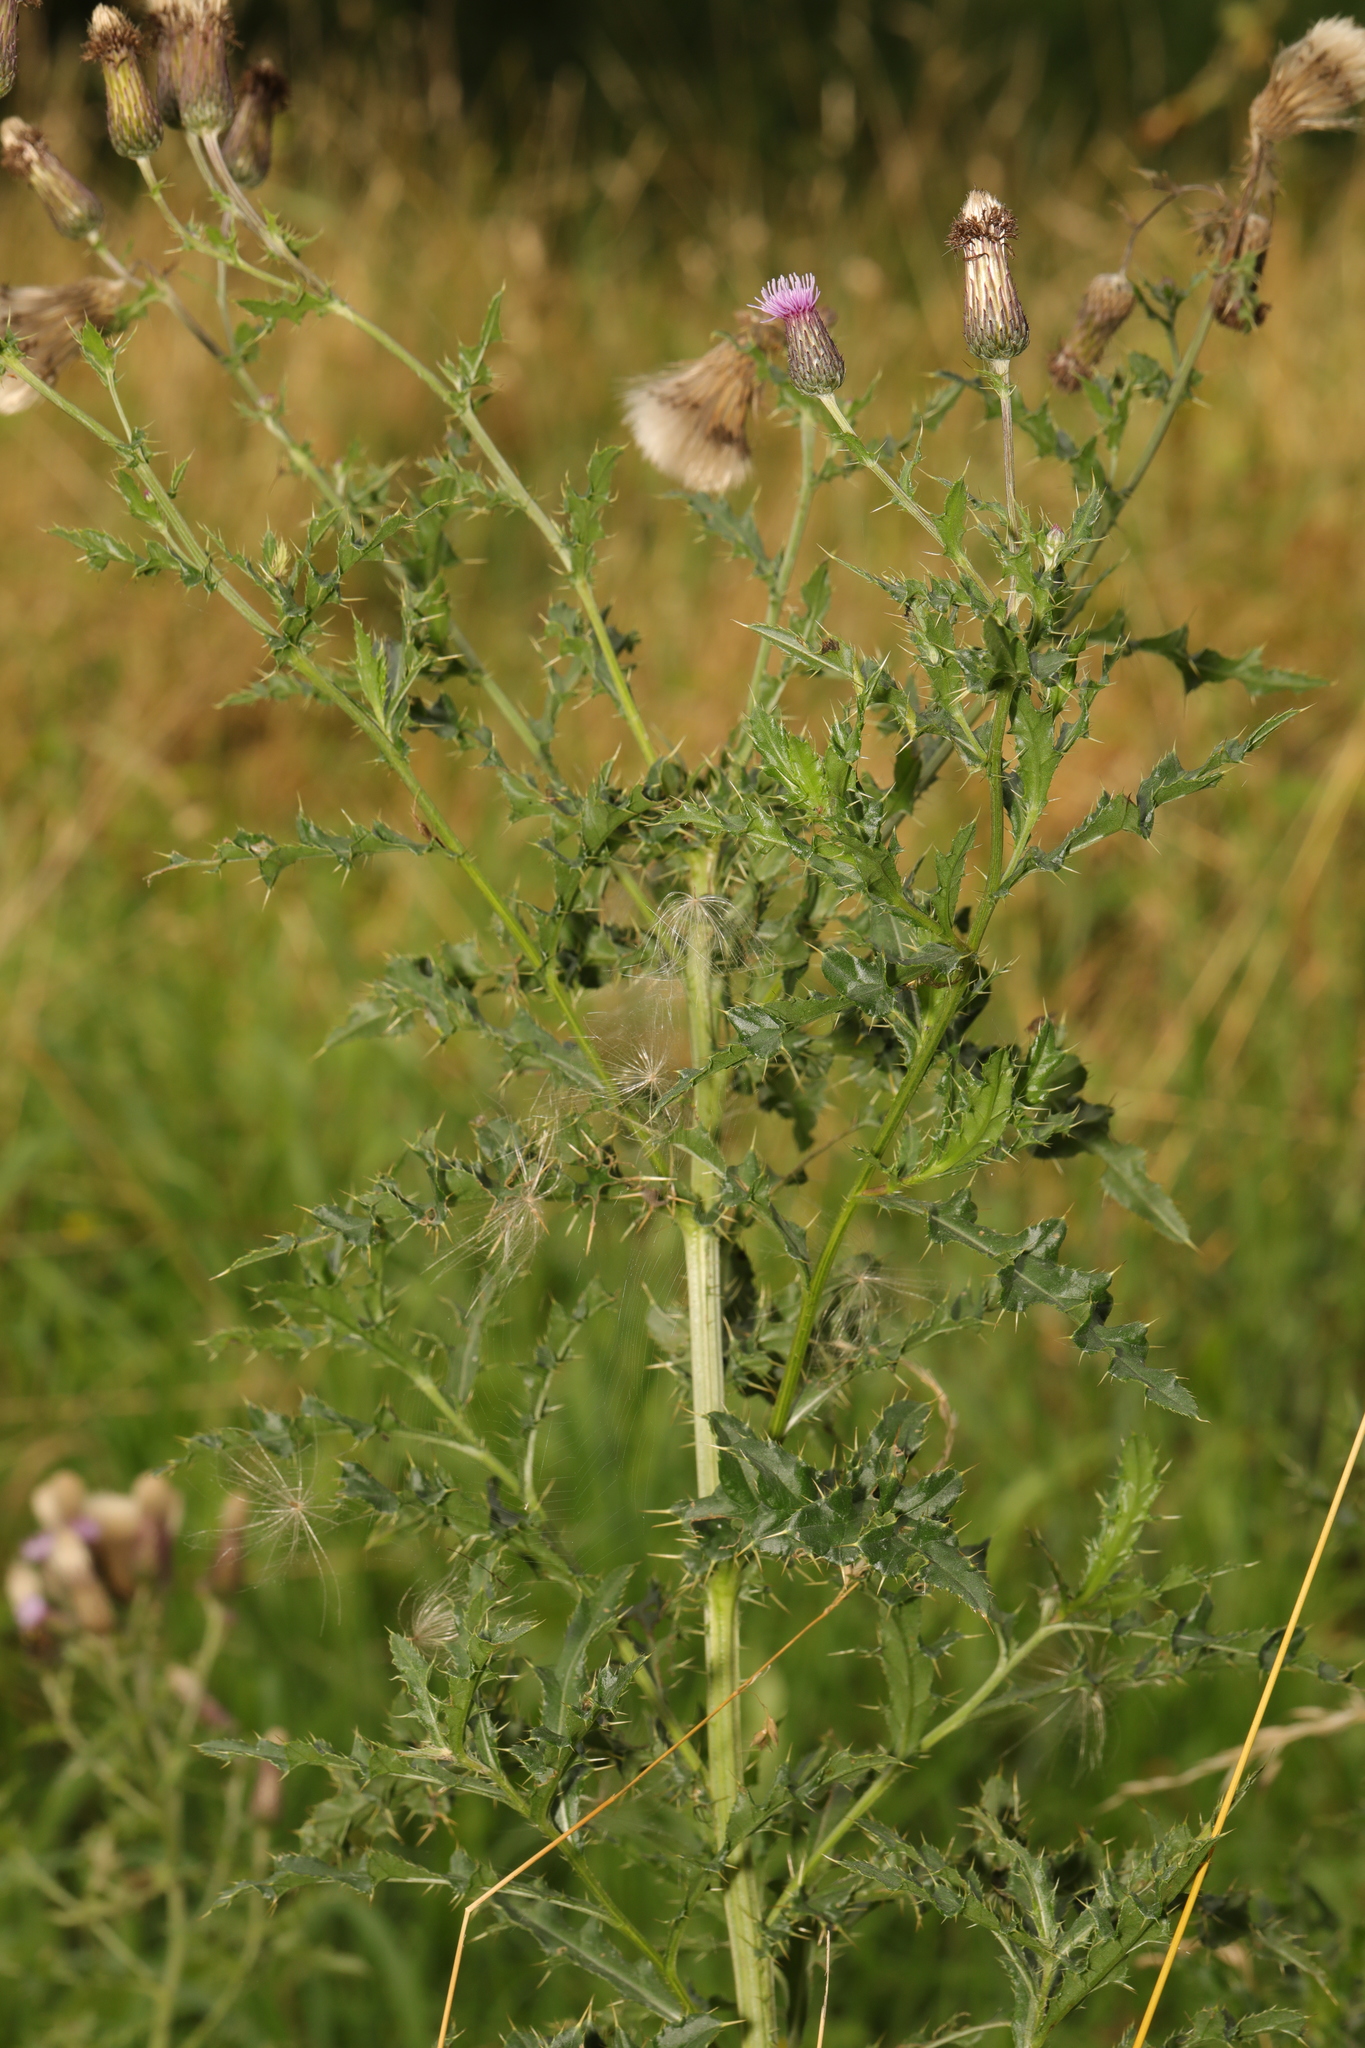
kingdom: Plantae
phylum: Tracheophyta
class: Magnoliopsida
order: Asterales
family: Asteraceae
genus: Cirsium
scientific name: Cirsium arvense
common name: Creeping thistle
